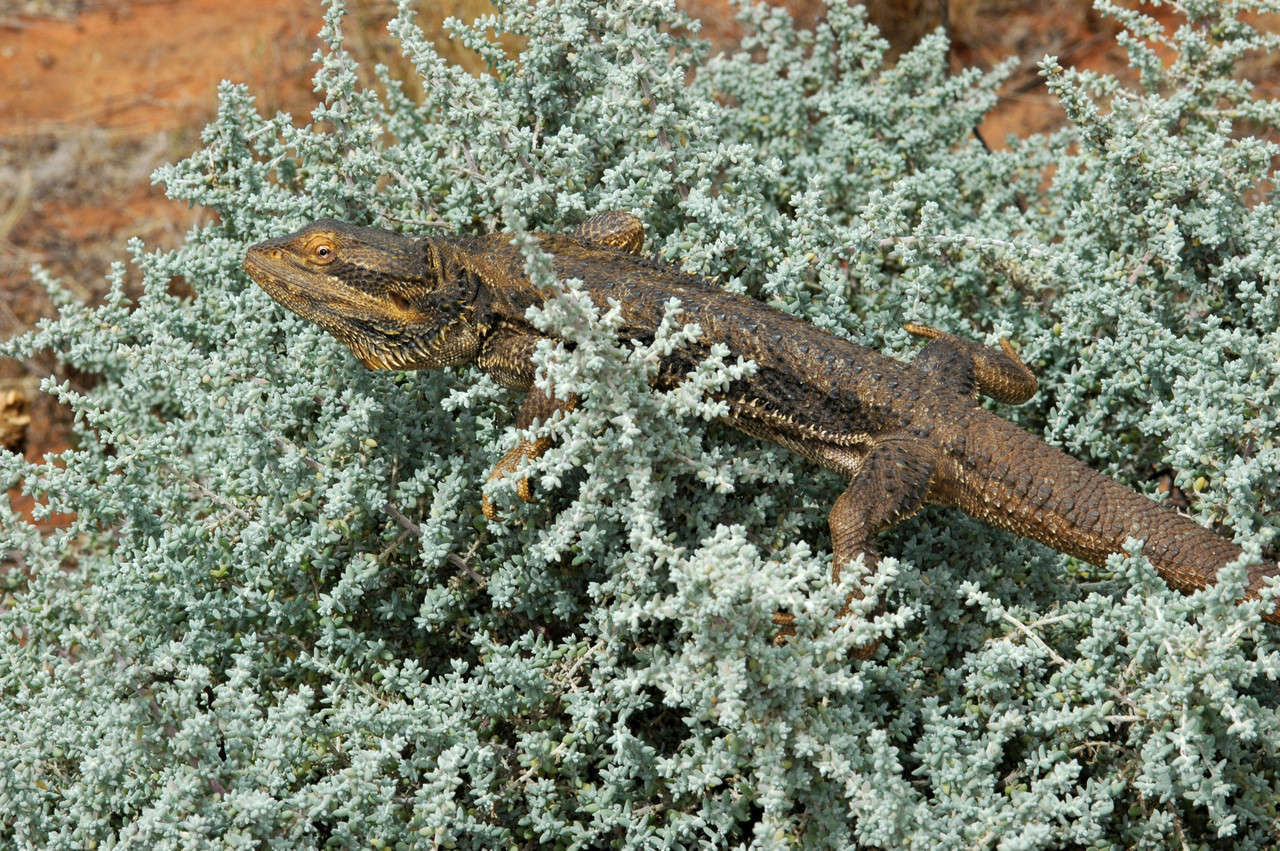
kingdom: Animalia
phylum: Chordata
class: Squamata
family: Agamidae
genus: Pogona
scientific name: Pogona vitticeps
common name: Central bearded dragon
